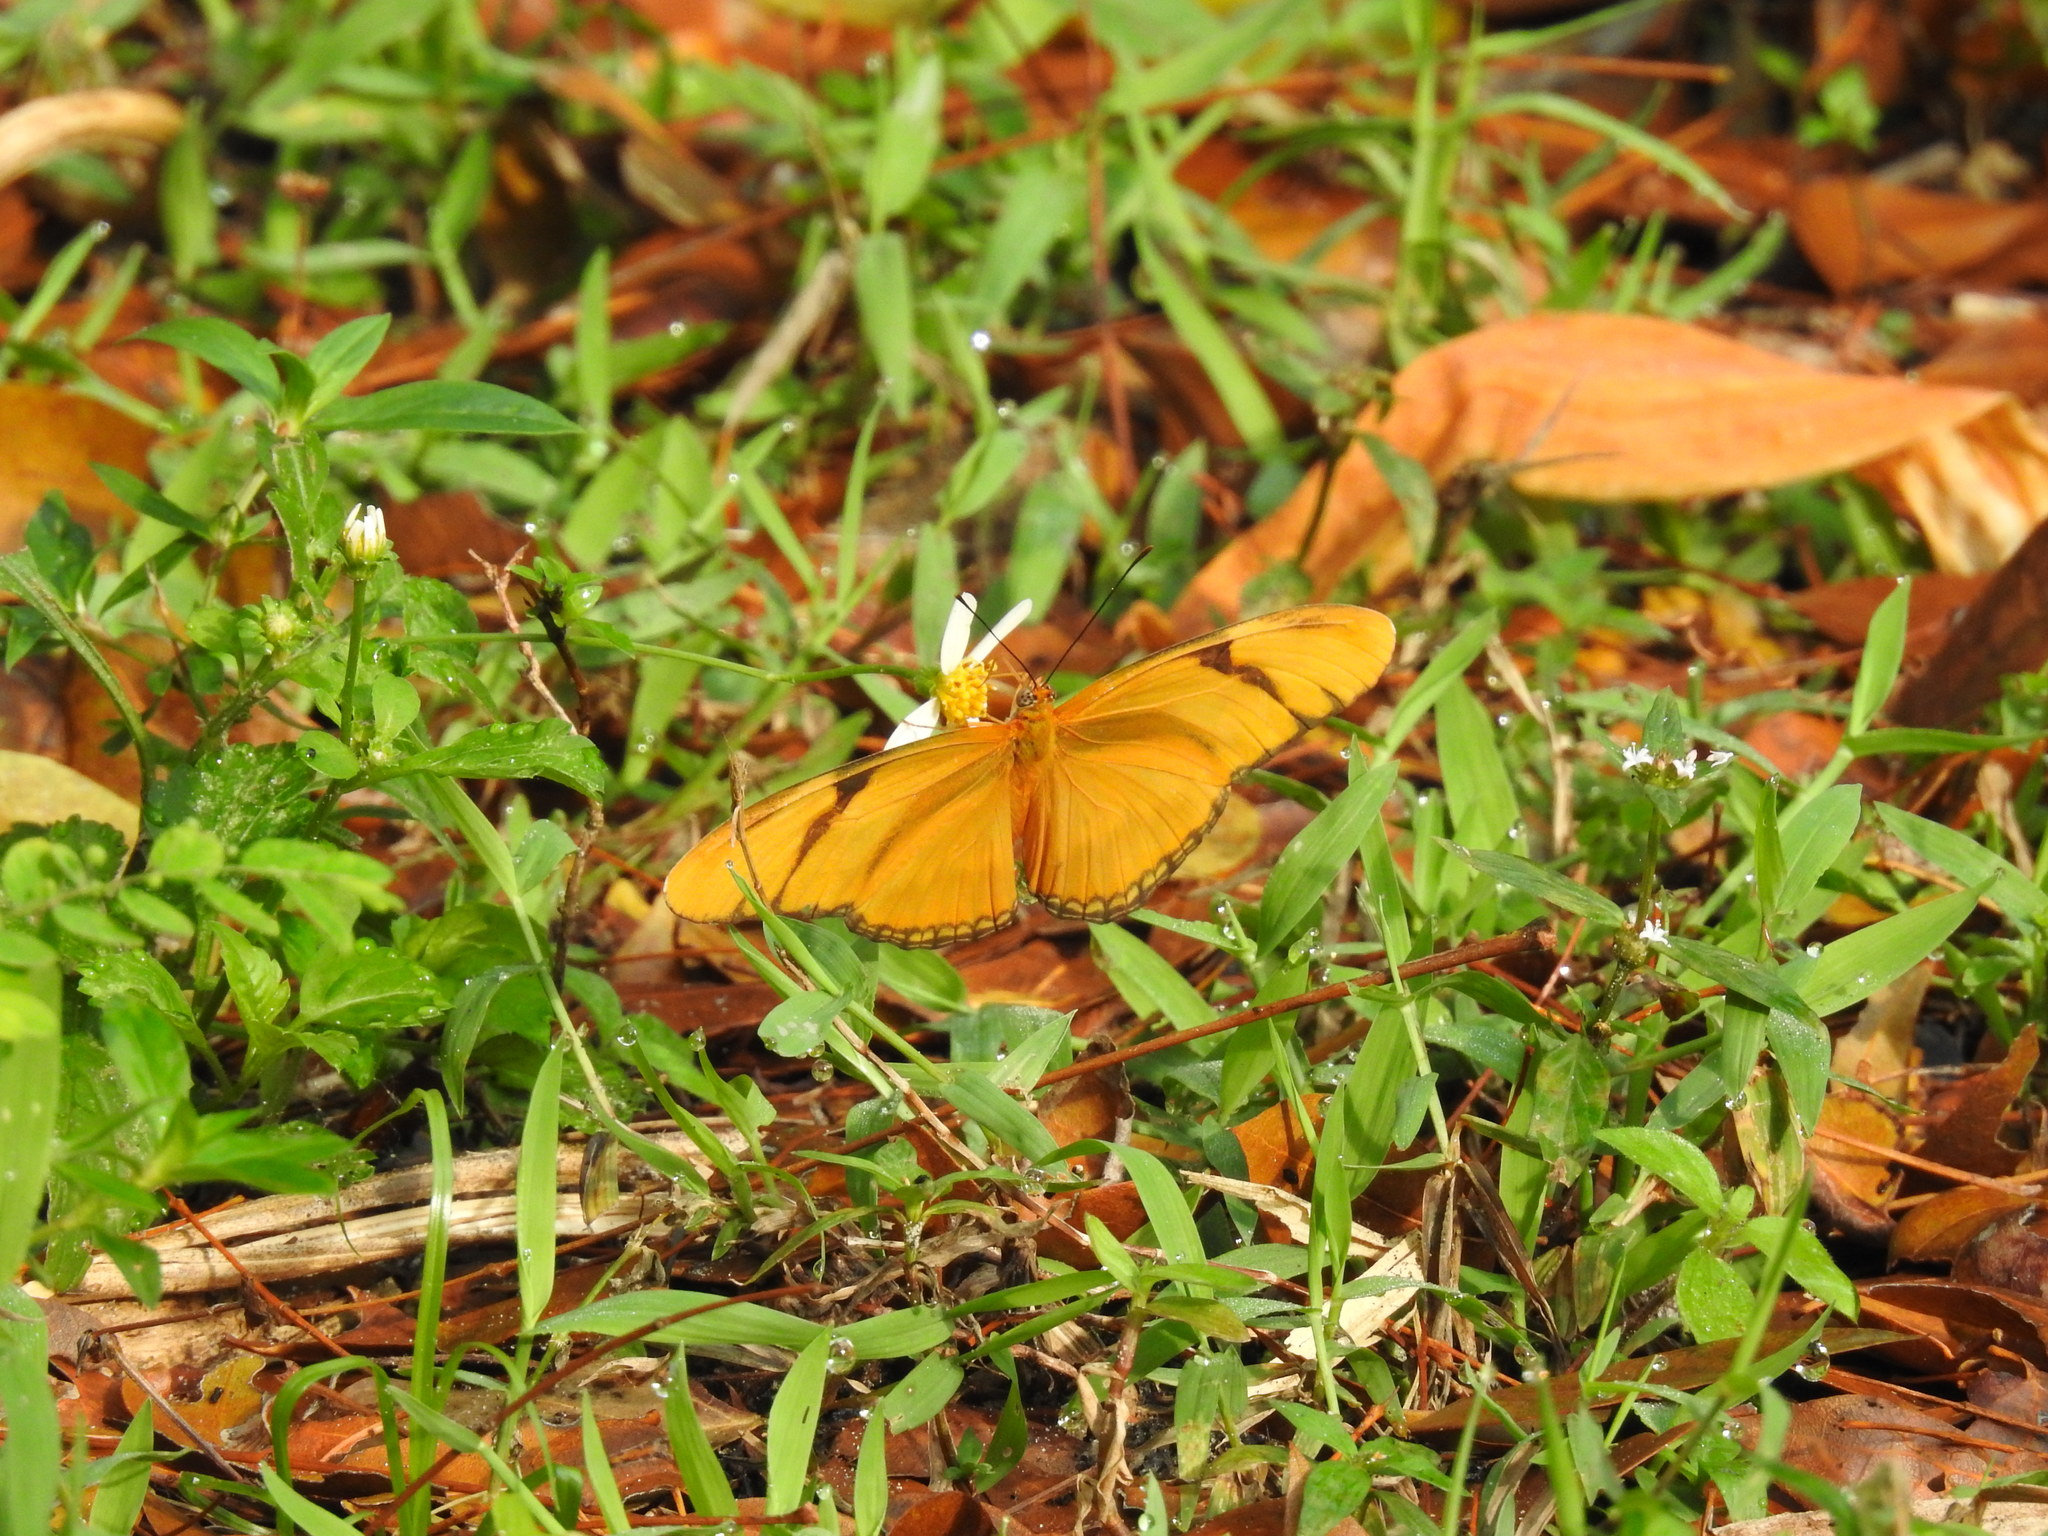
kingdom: Animalia
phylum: Arthropoda
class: Insecta
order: Lepidoptera
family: Nymphalidae
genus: Dryas
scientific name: Dryas iulia
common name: Flambeau
